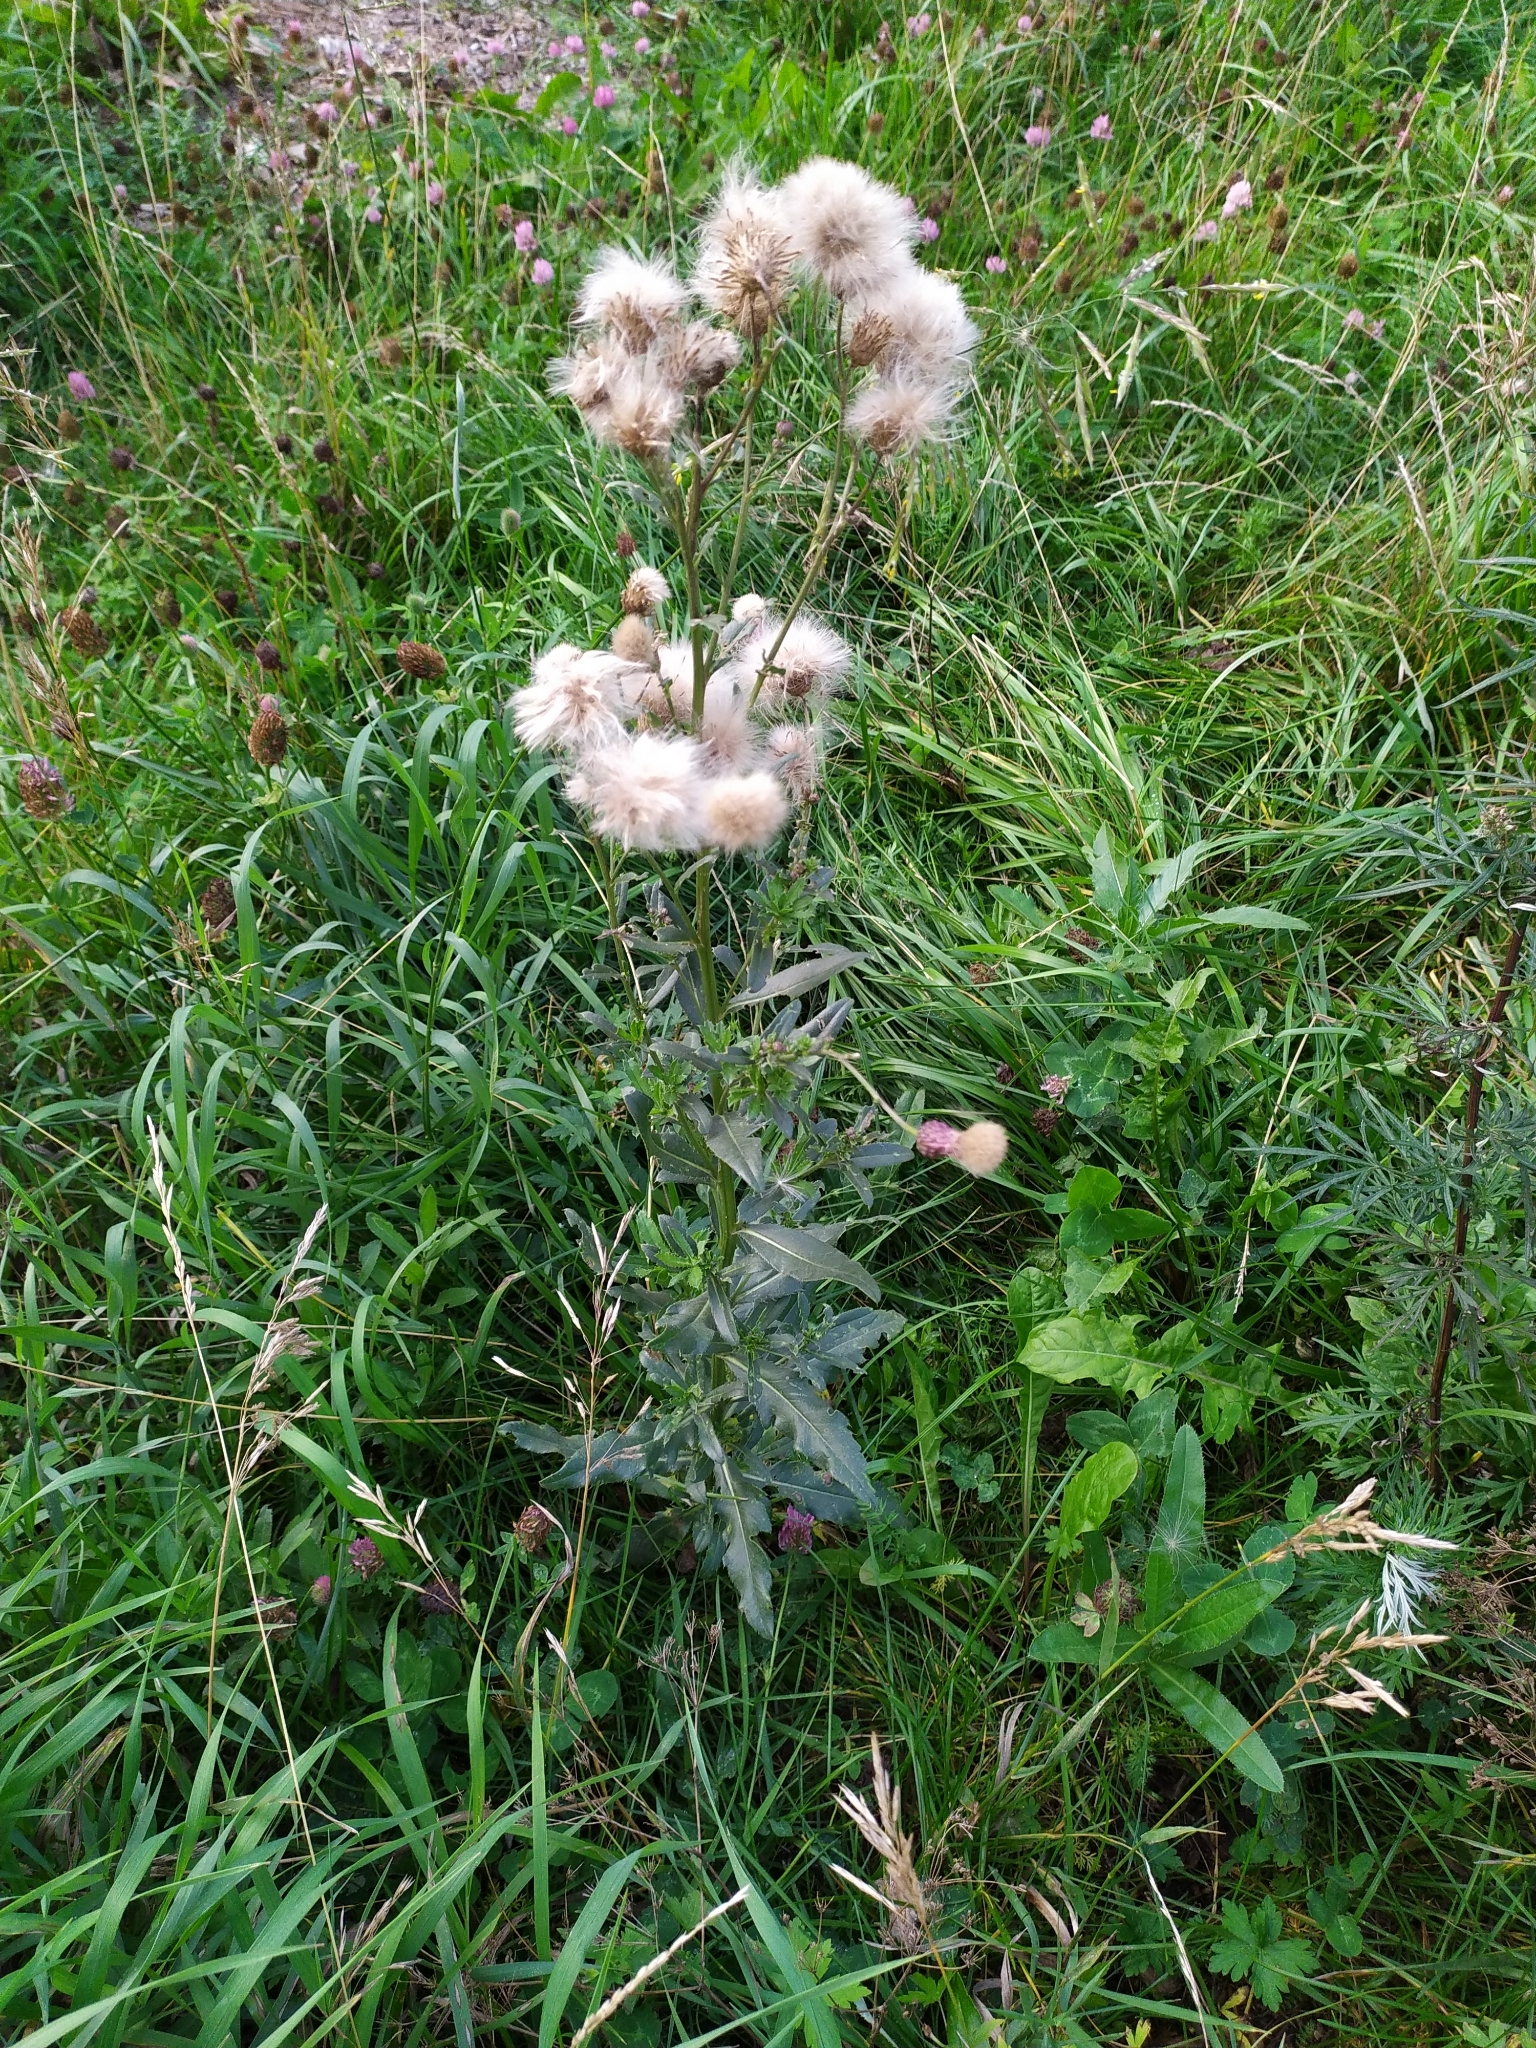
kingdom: Plantae
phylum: Tracheophyta
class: Magnoliopsida
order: Asterales
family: Asteraceae
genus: Cirsium
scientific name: Cirsium arvense
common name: Creeping thistle
